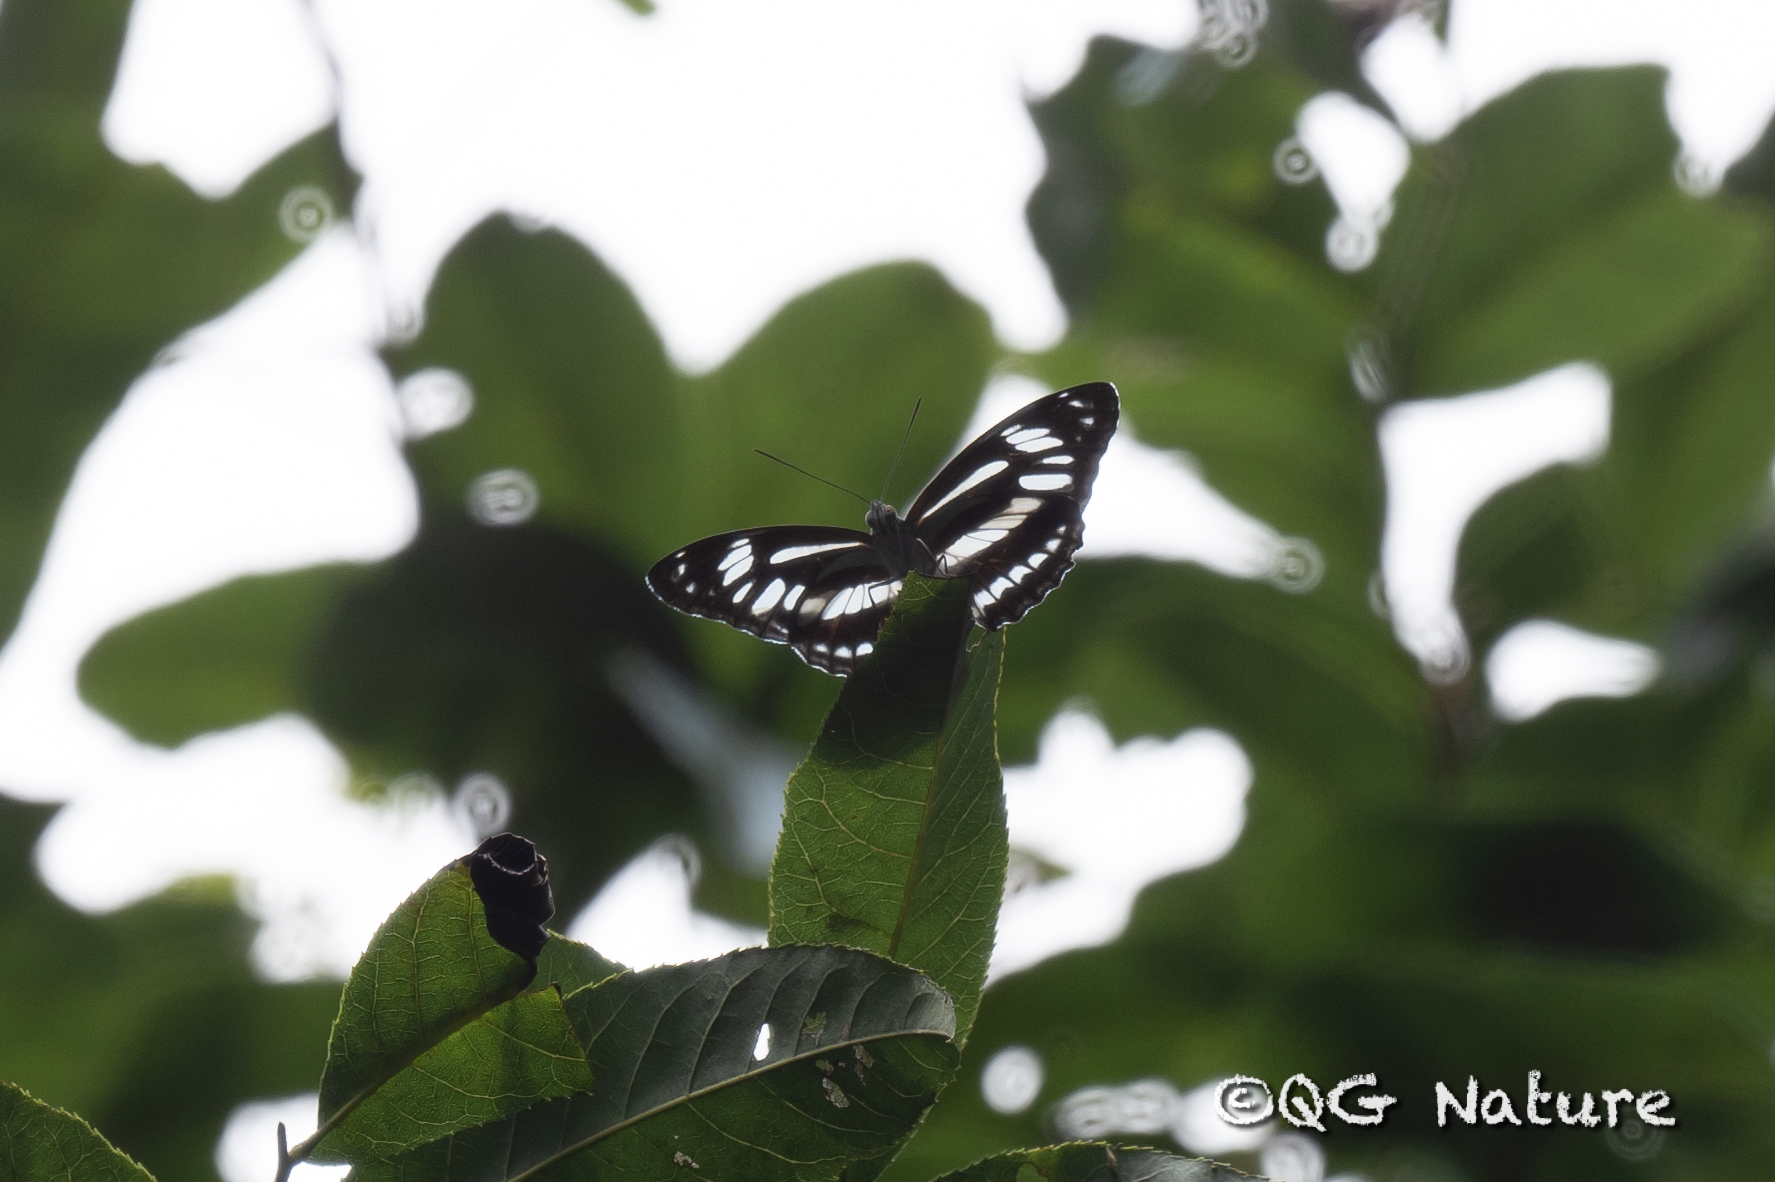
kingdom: Animalia
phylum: Arthropoda
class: Insecta
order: Lepidoptera
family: Nymphalidae
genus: Pantoporia
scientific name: Pantoporia jina
